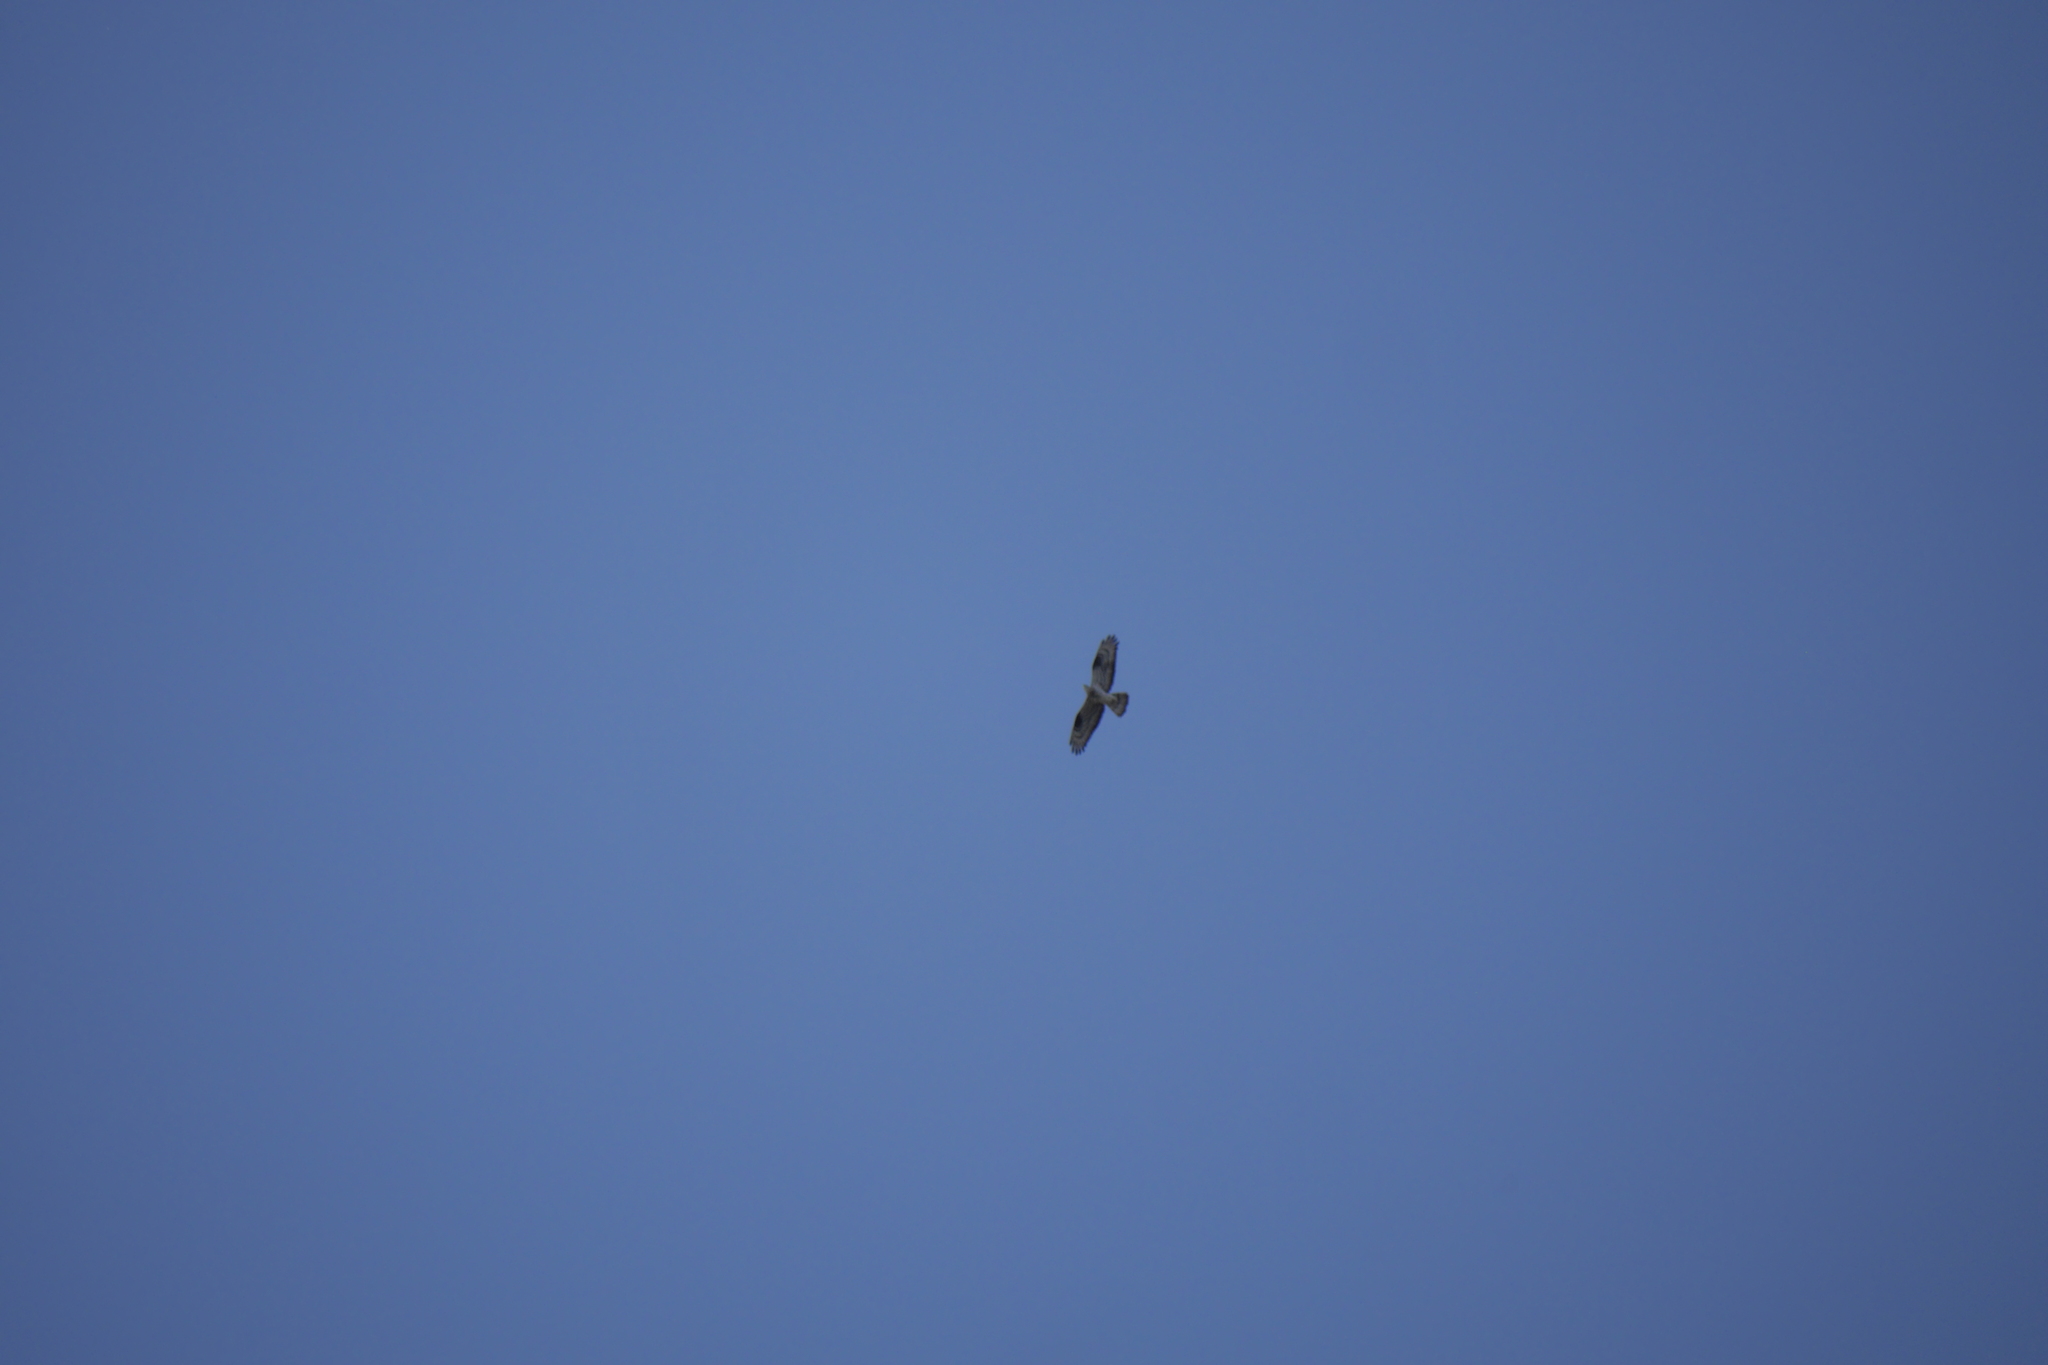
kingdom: Animalia
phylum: Chordata
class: Aves
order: Accipitriformes
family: Accipitridae
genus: Pernis
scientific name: Pernis apivorus
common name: European honey buzzard
